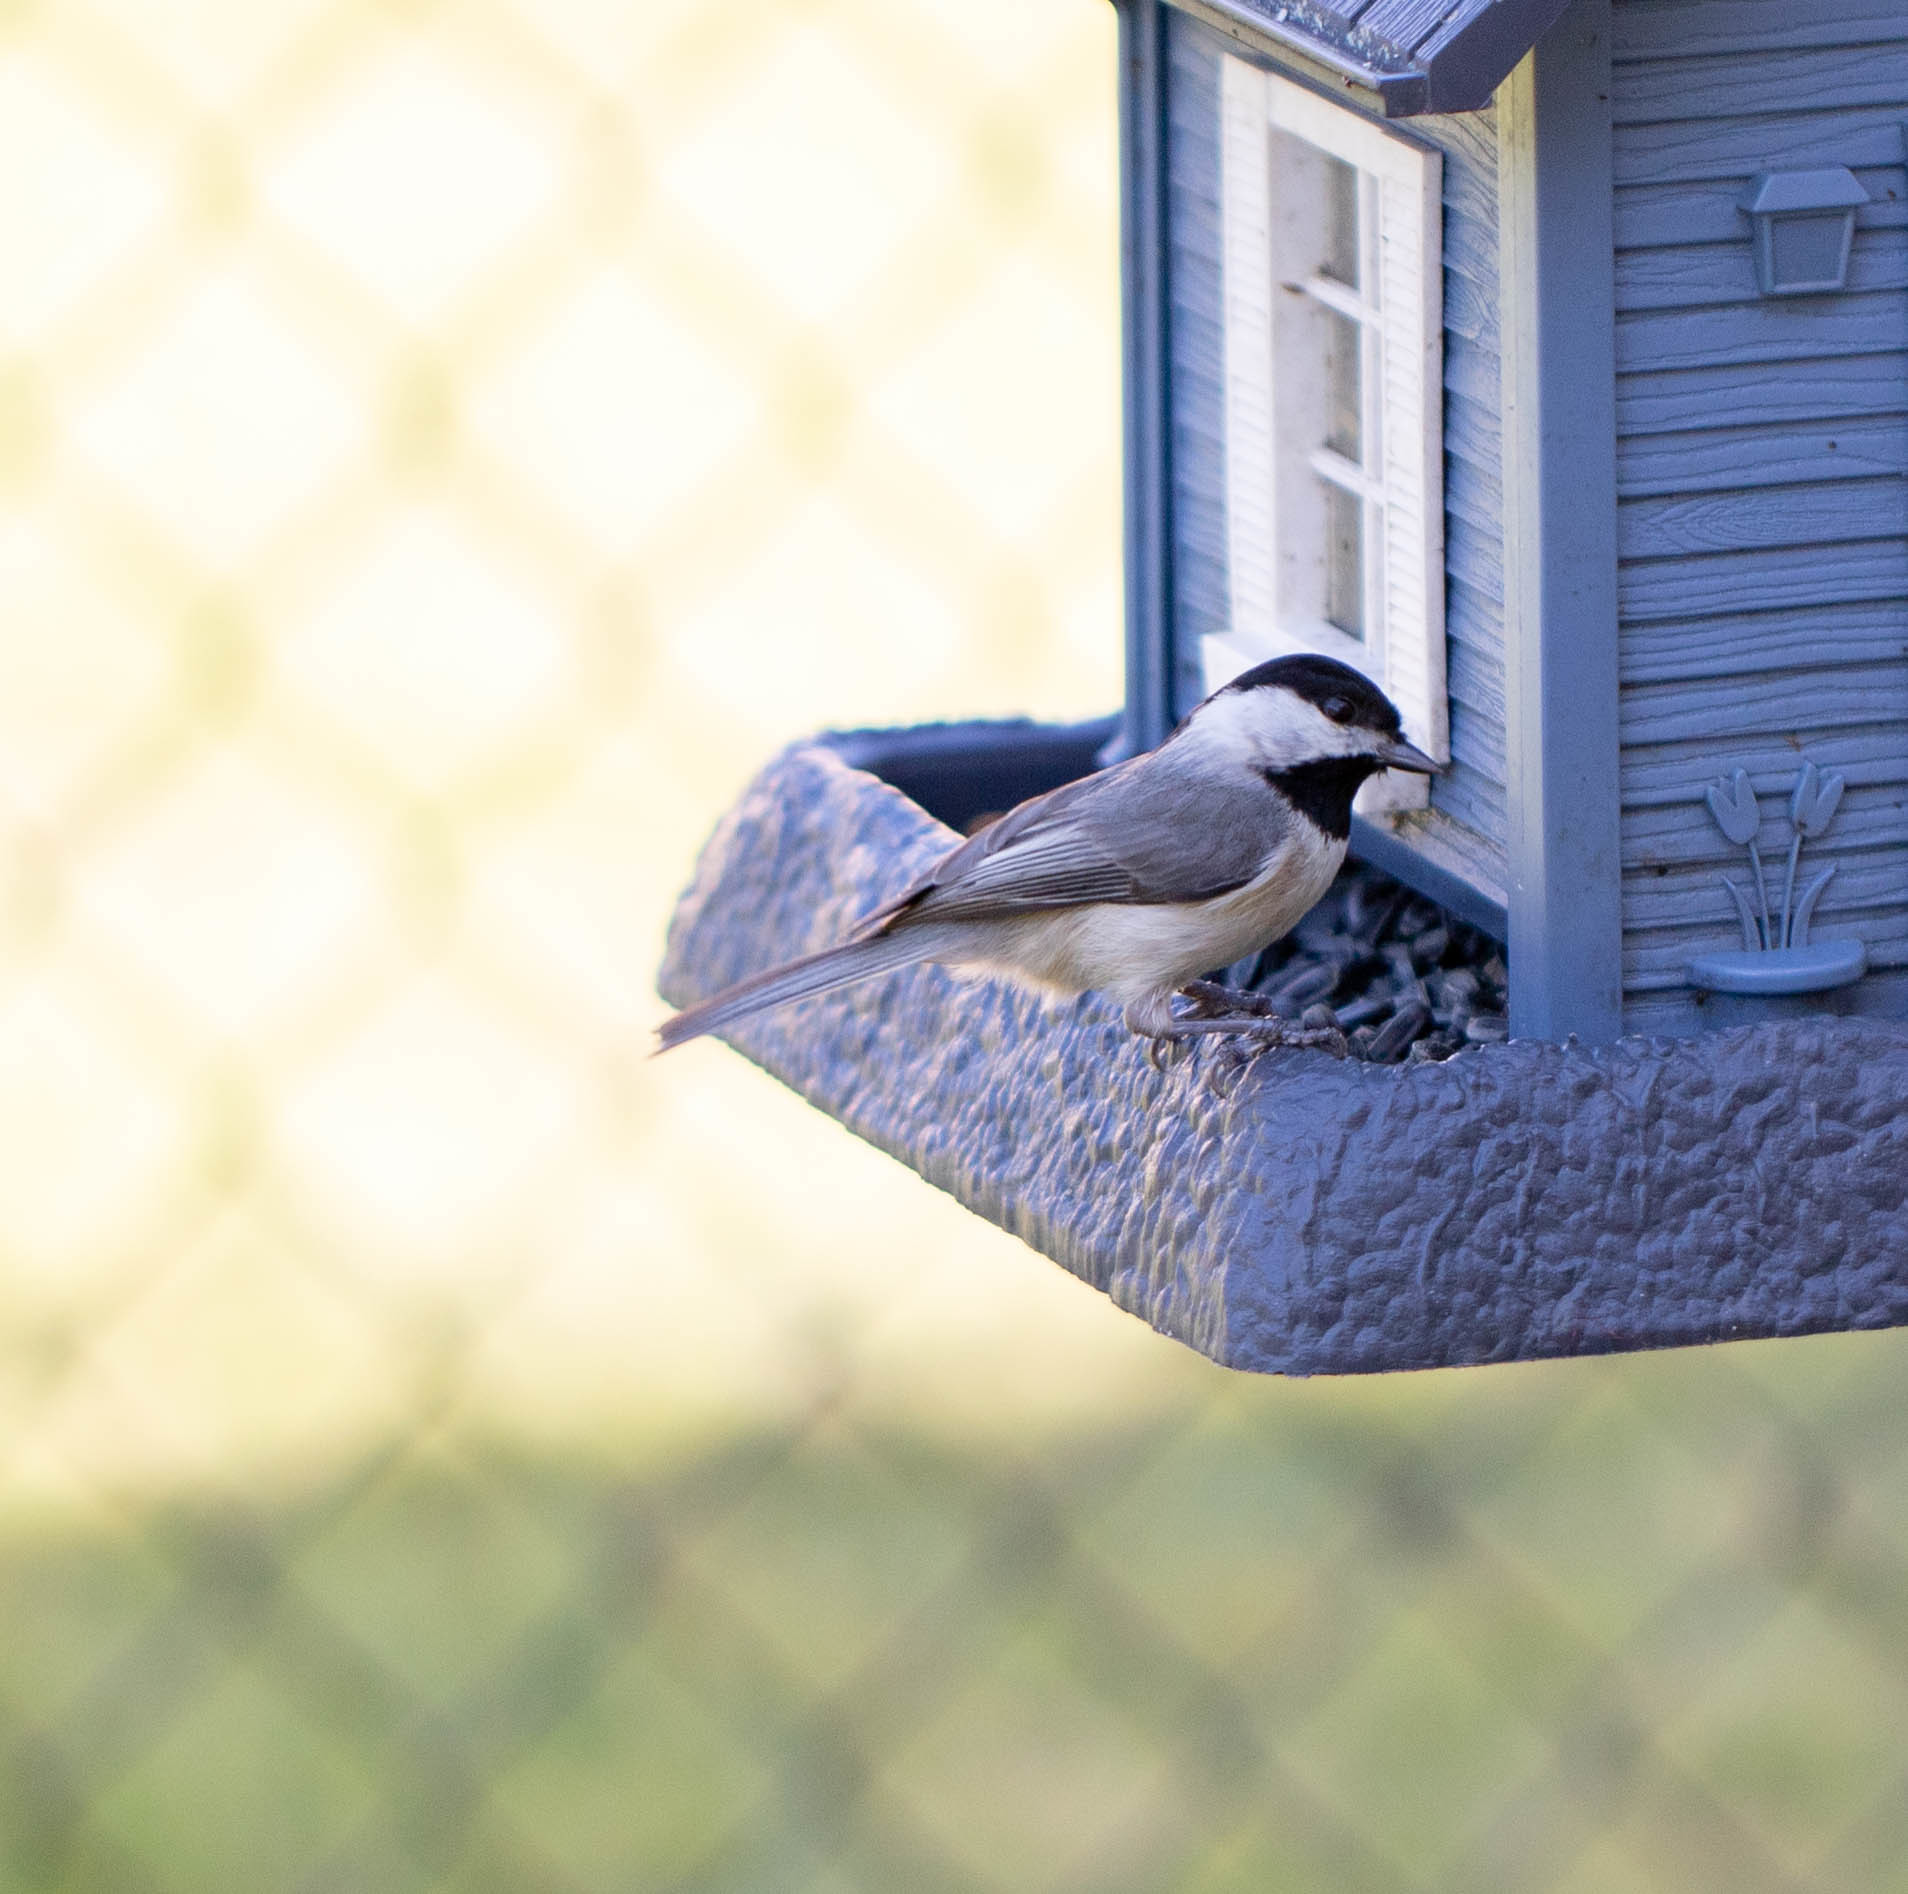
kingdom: Animalia
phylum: Chordata
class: Aves
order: Passeriformes
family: Paridae
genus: Poecile
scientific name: Poecile carolinensis
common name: Carolina chickadee
